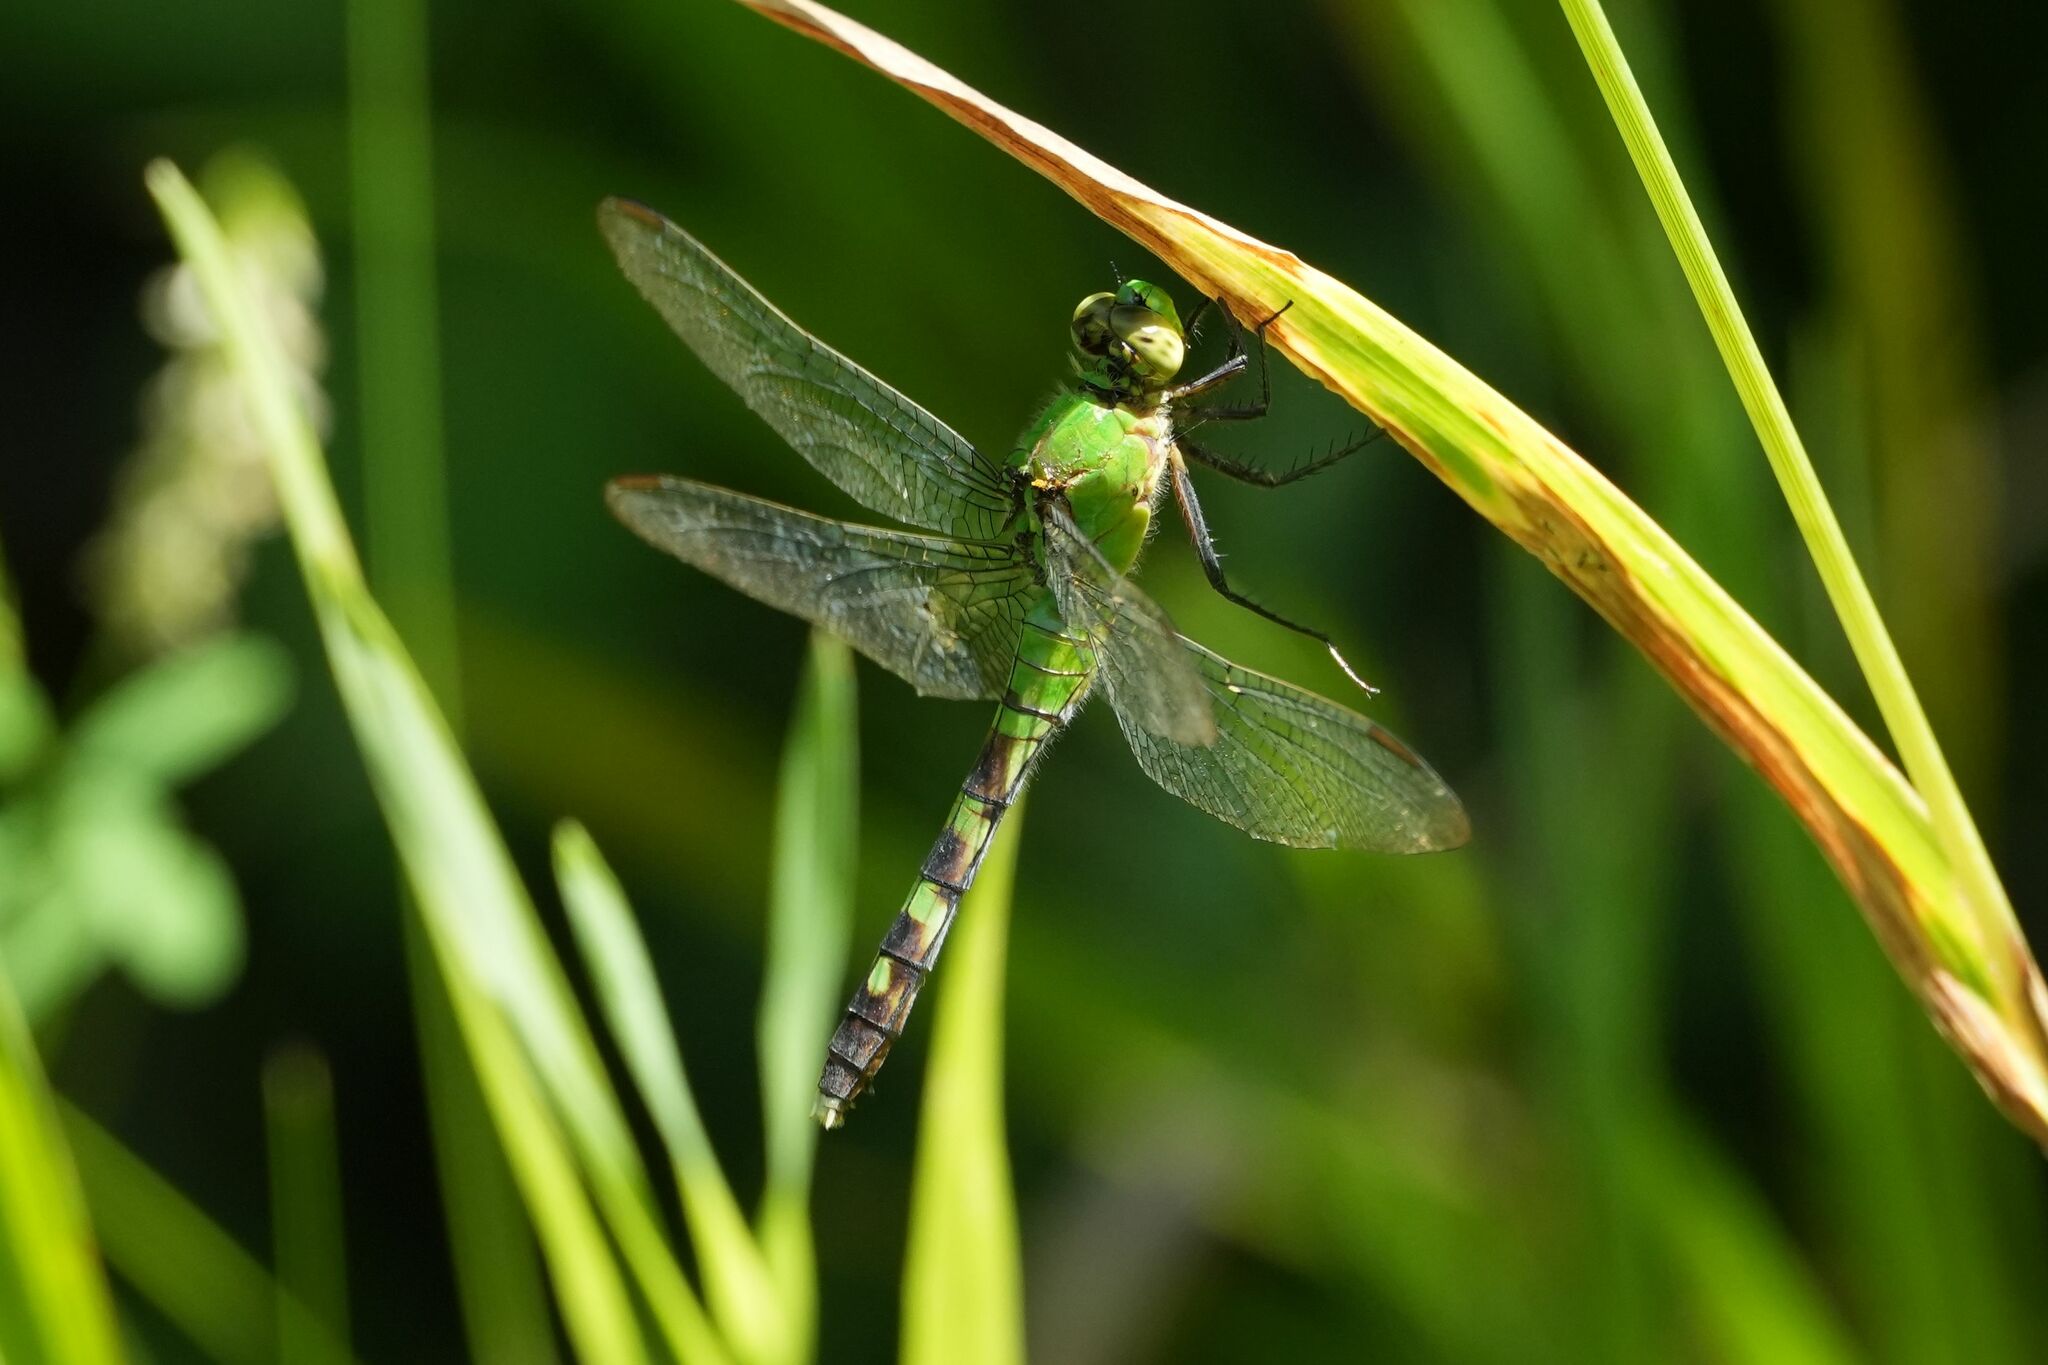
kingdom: Animalia
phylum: Arthropoda
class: Insecta
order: Odonata
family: Libellulidae
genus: Erythemis
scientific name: Erythemis simplicicollis
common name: Eastern pondhawk
